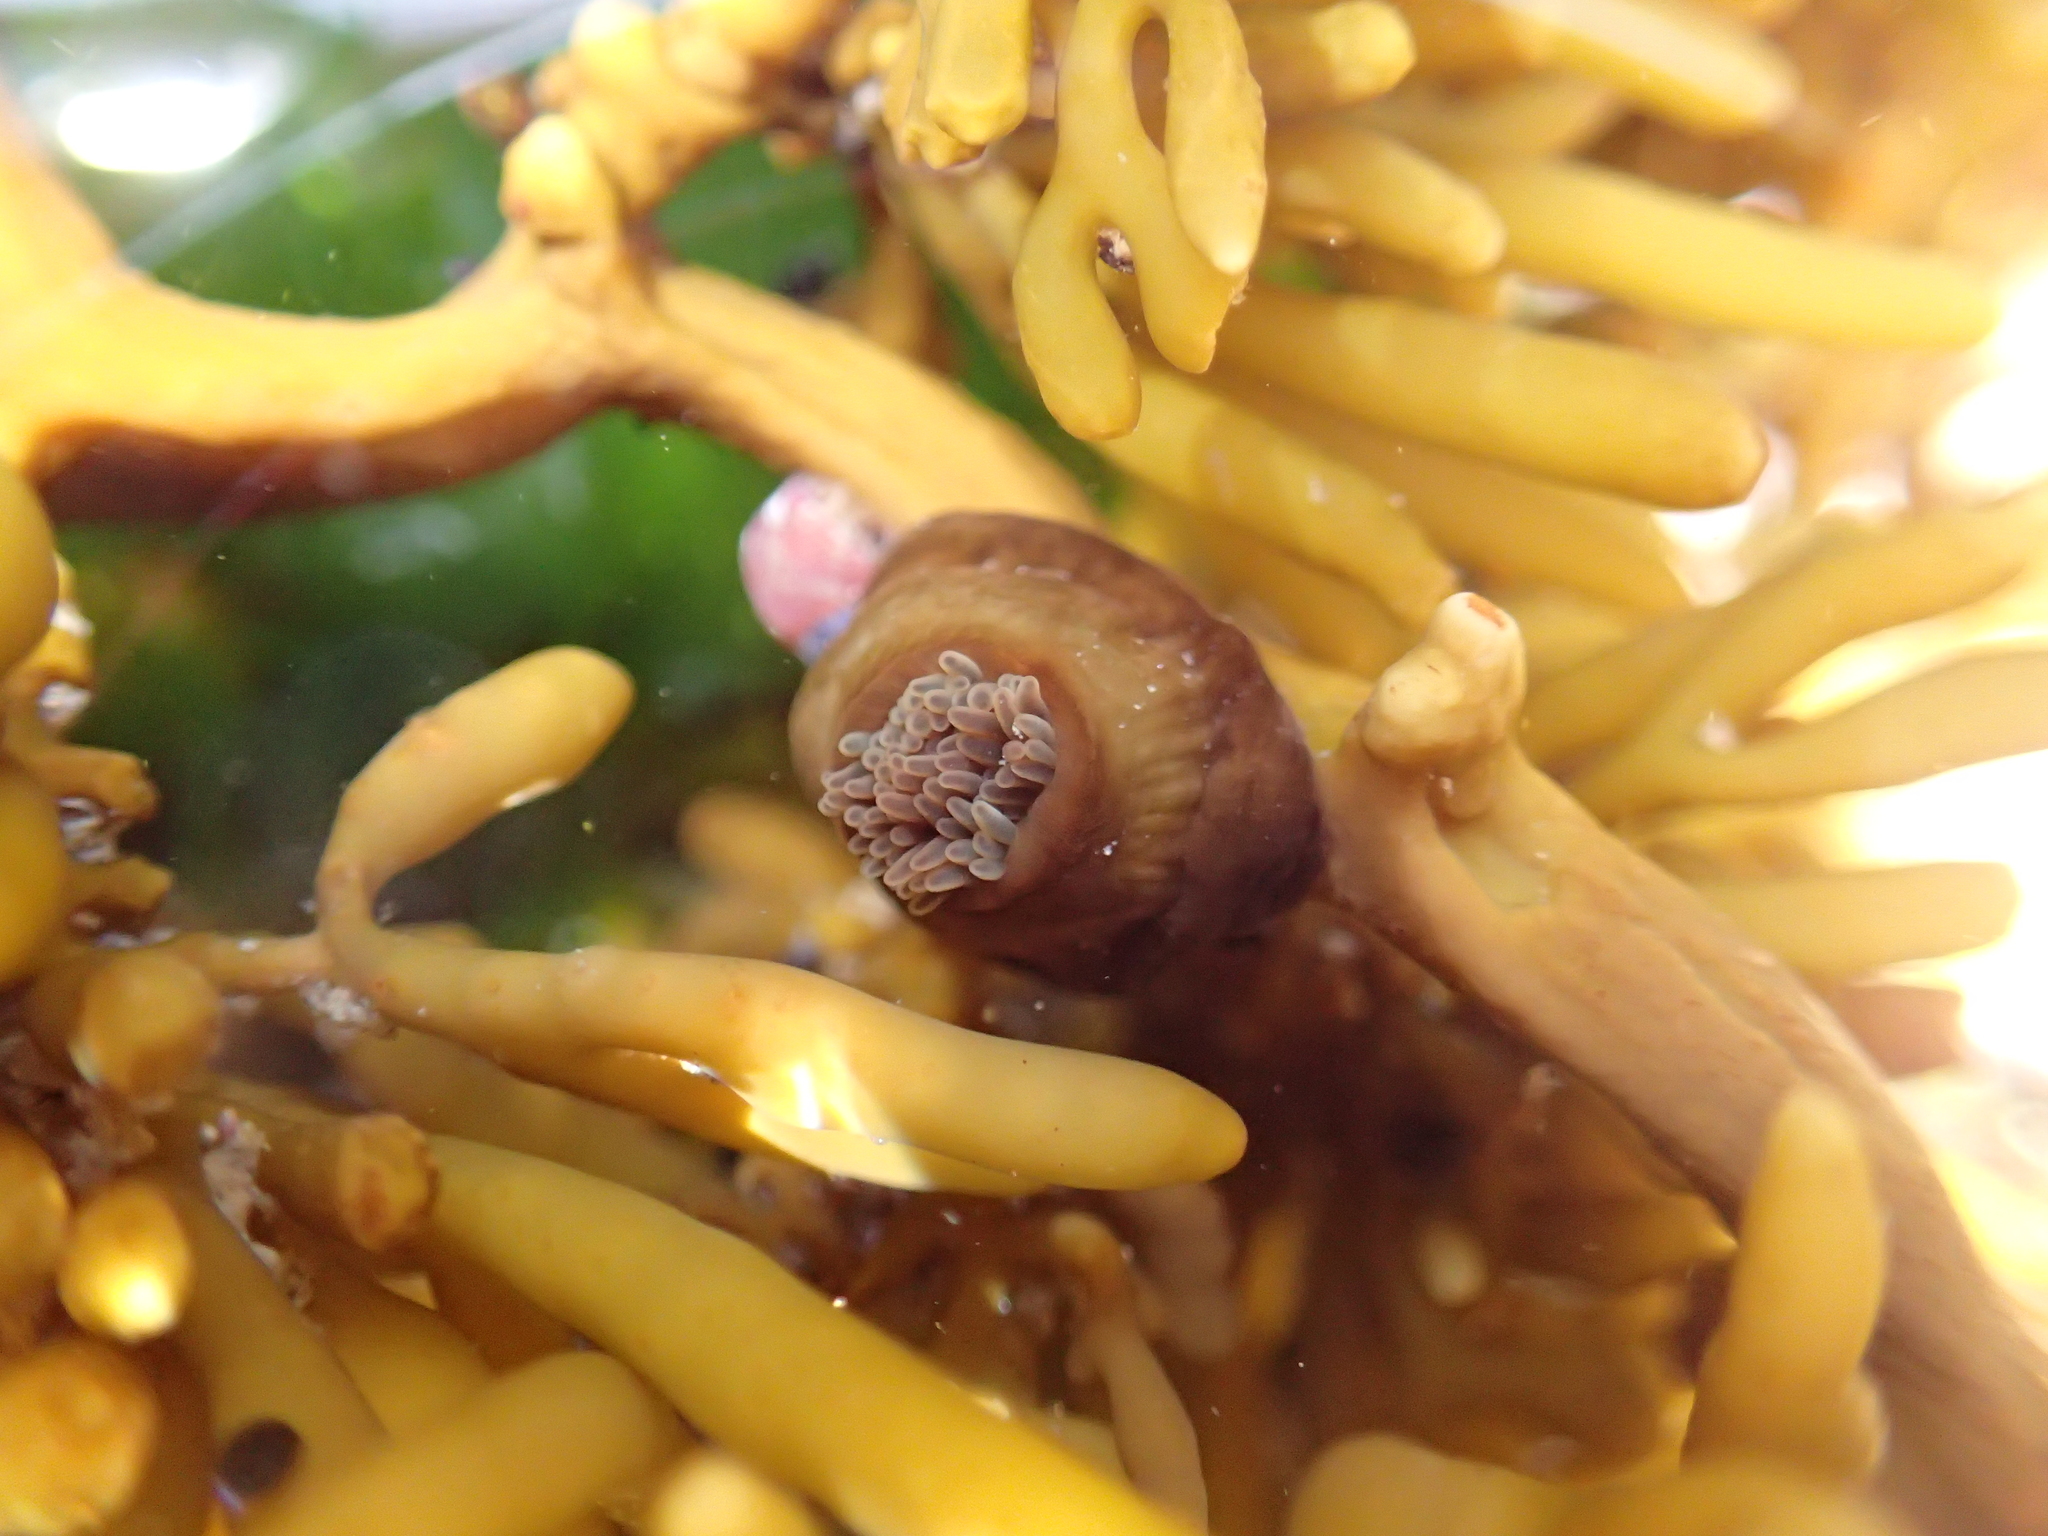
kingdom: Animalia
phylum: Cnidaria
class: Anthozoa
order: Actiniaria
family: Hormathiidae
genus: Handactis
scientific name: Handactis nutrix
